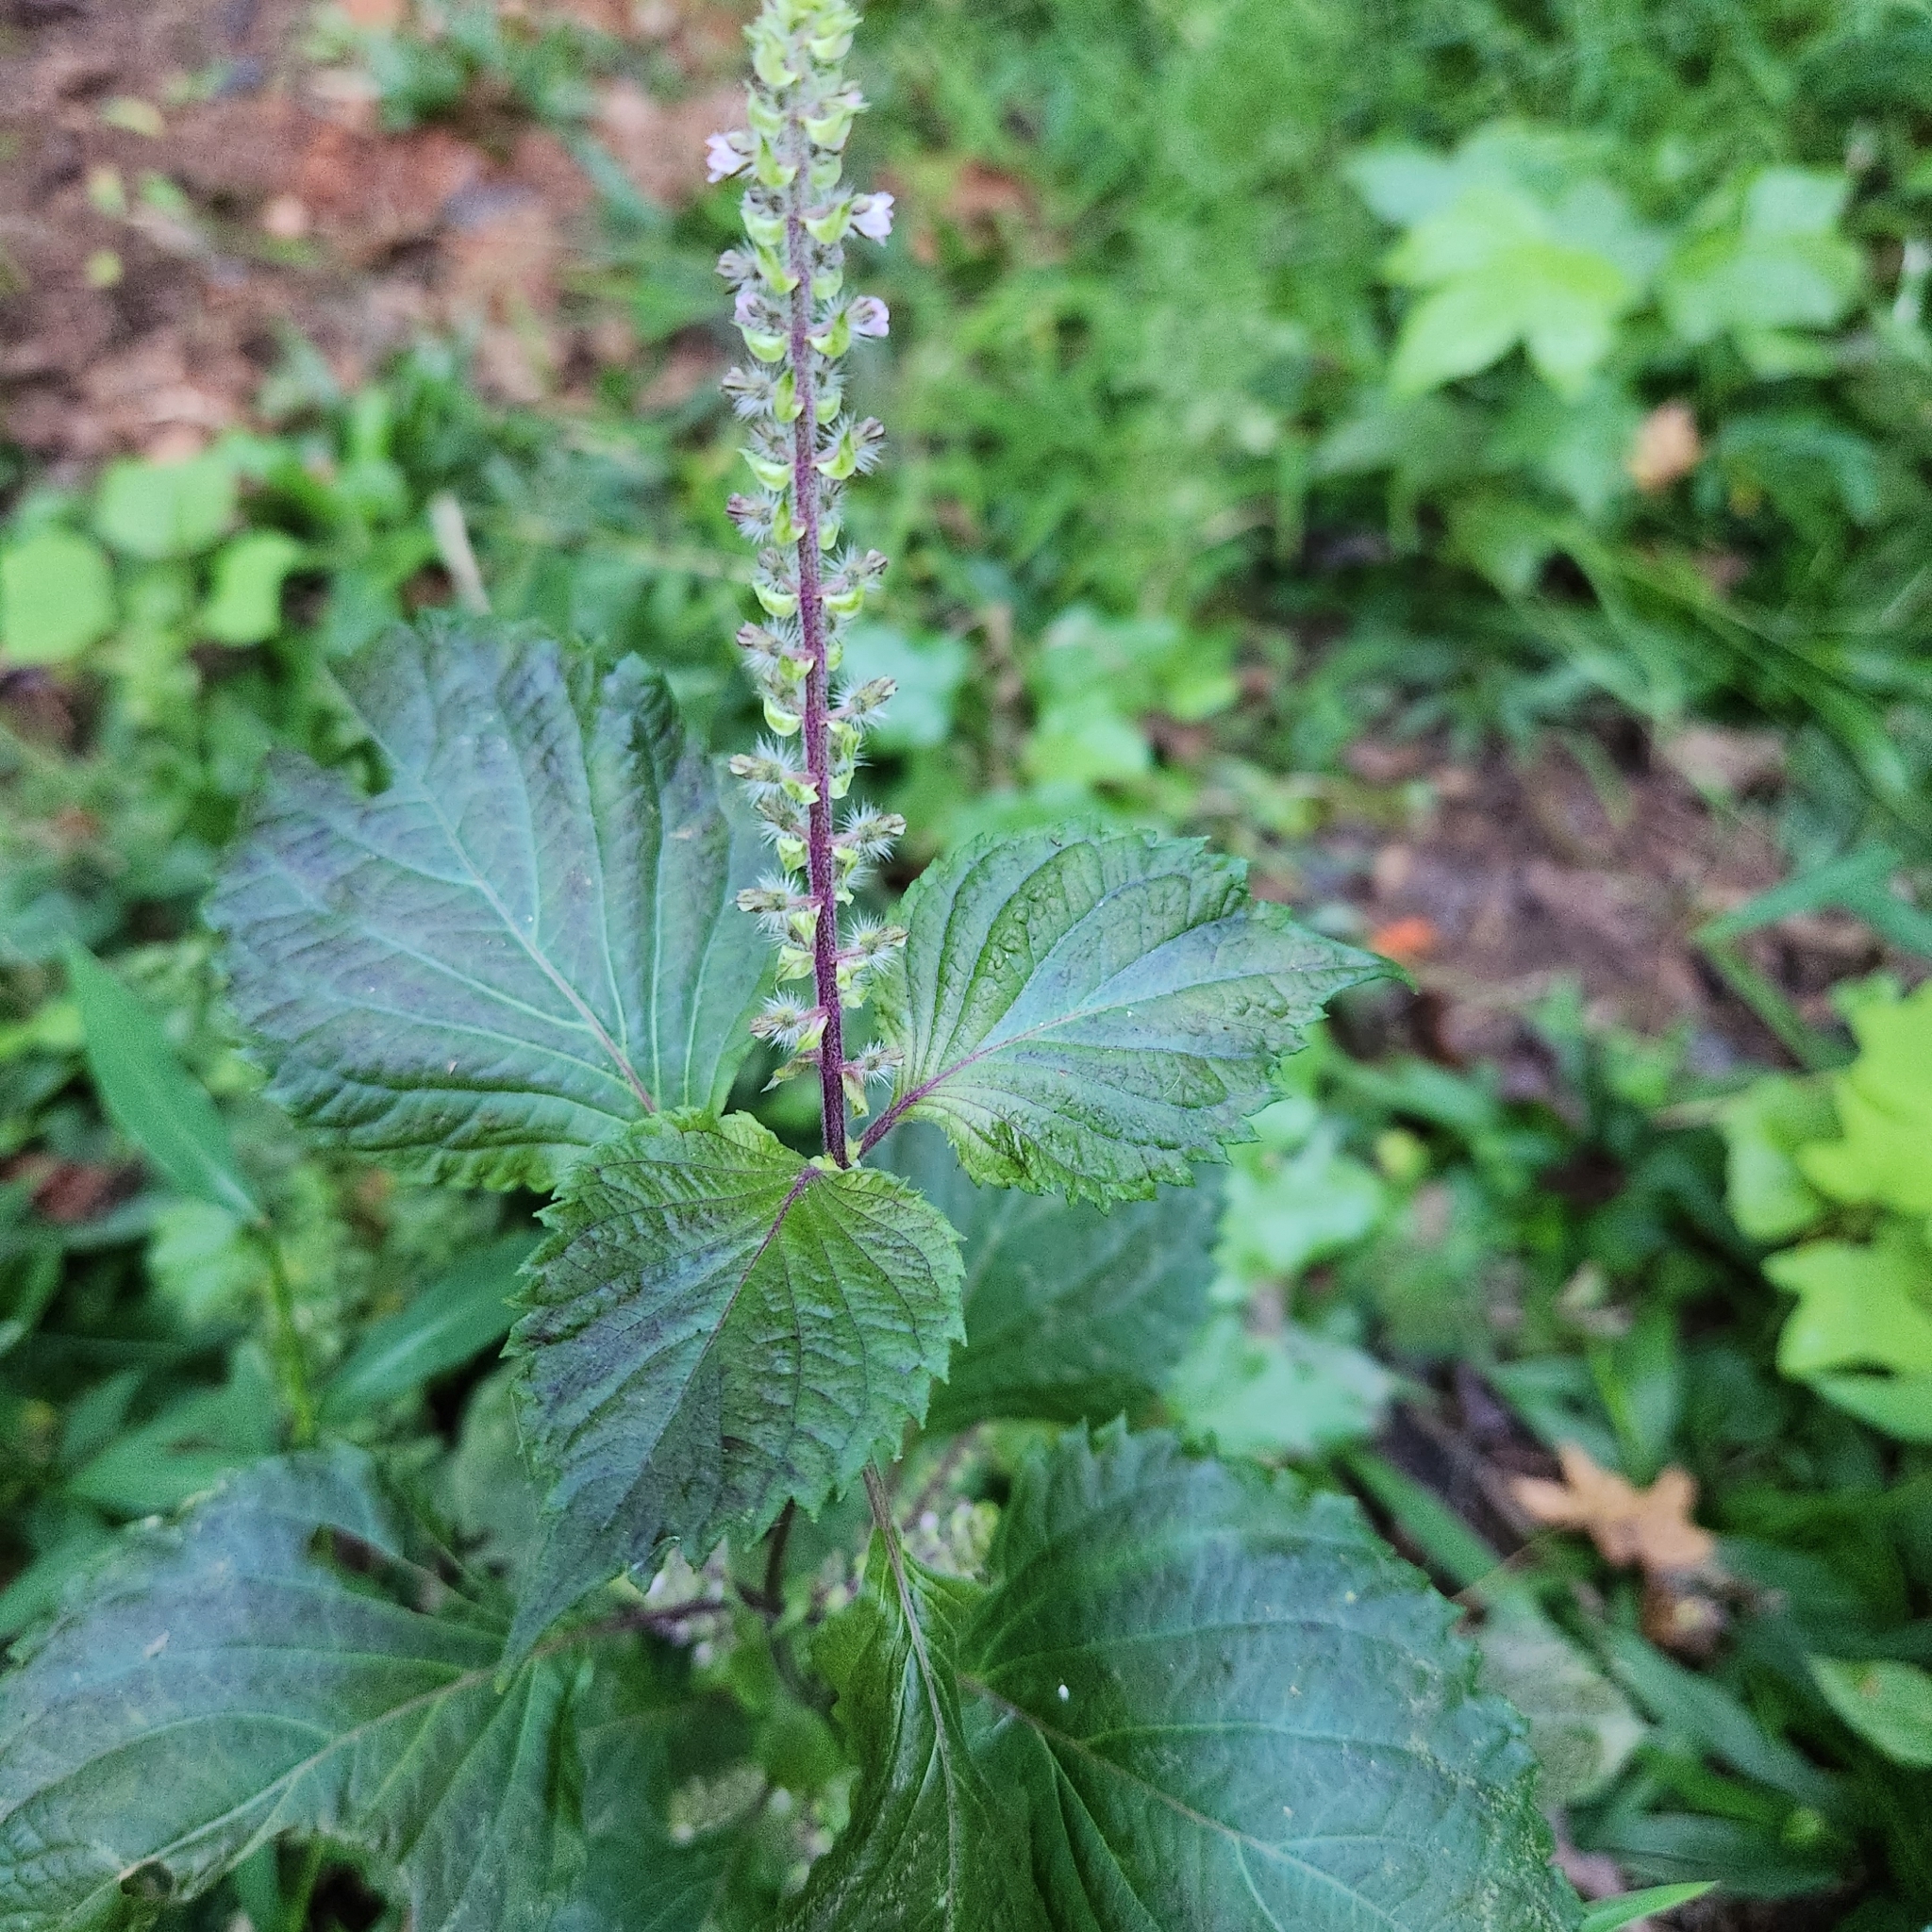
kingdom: Plantae
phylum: Tracheophyta
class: Magnoliopsida
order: Lamiales
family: Lamiaceae
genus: Perilla
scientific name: Perilla frutescens
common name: Perilla
